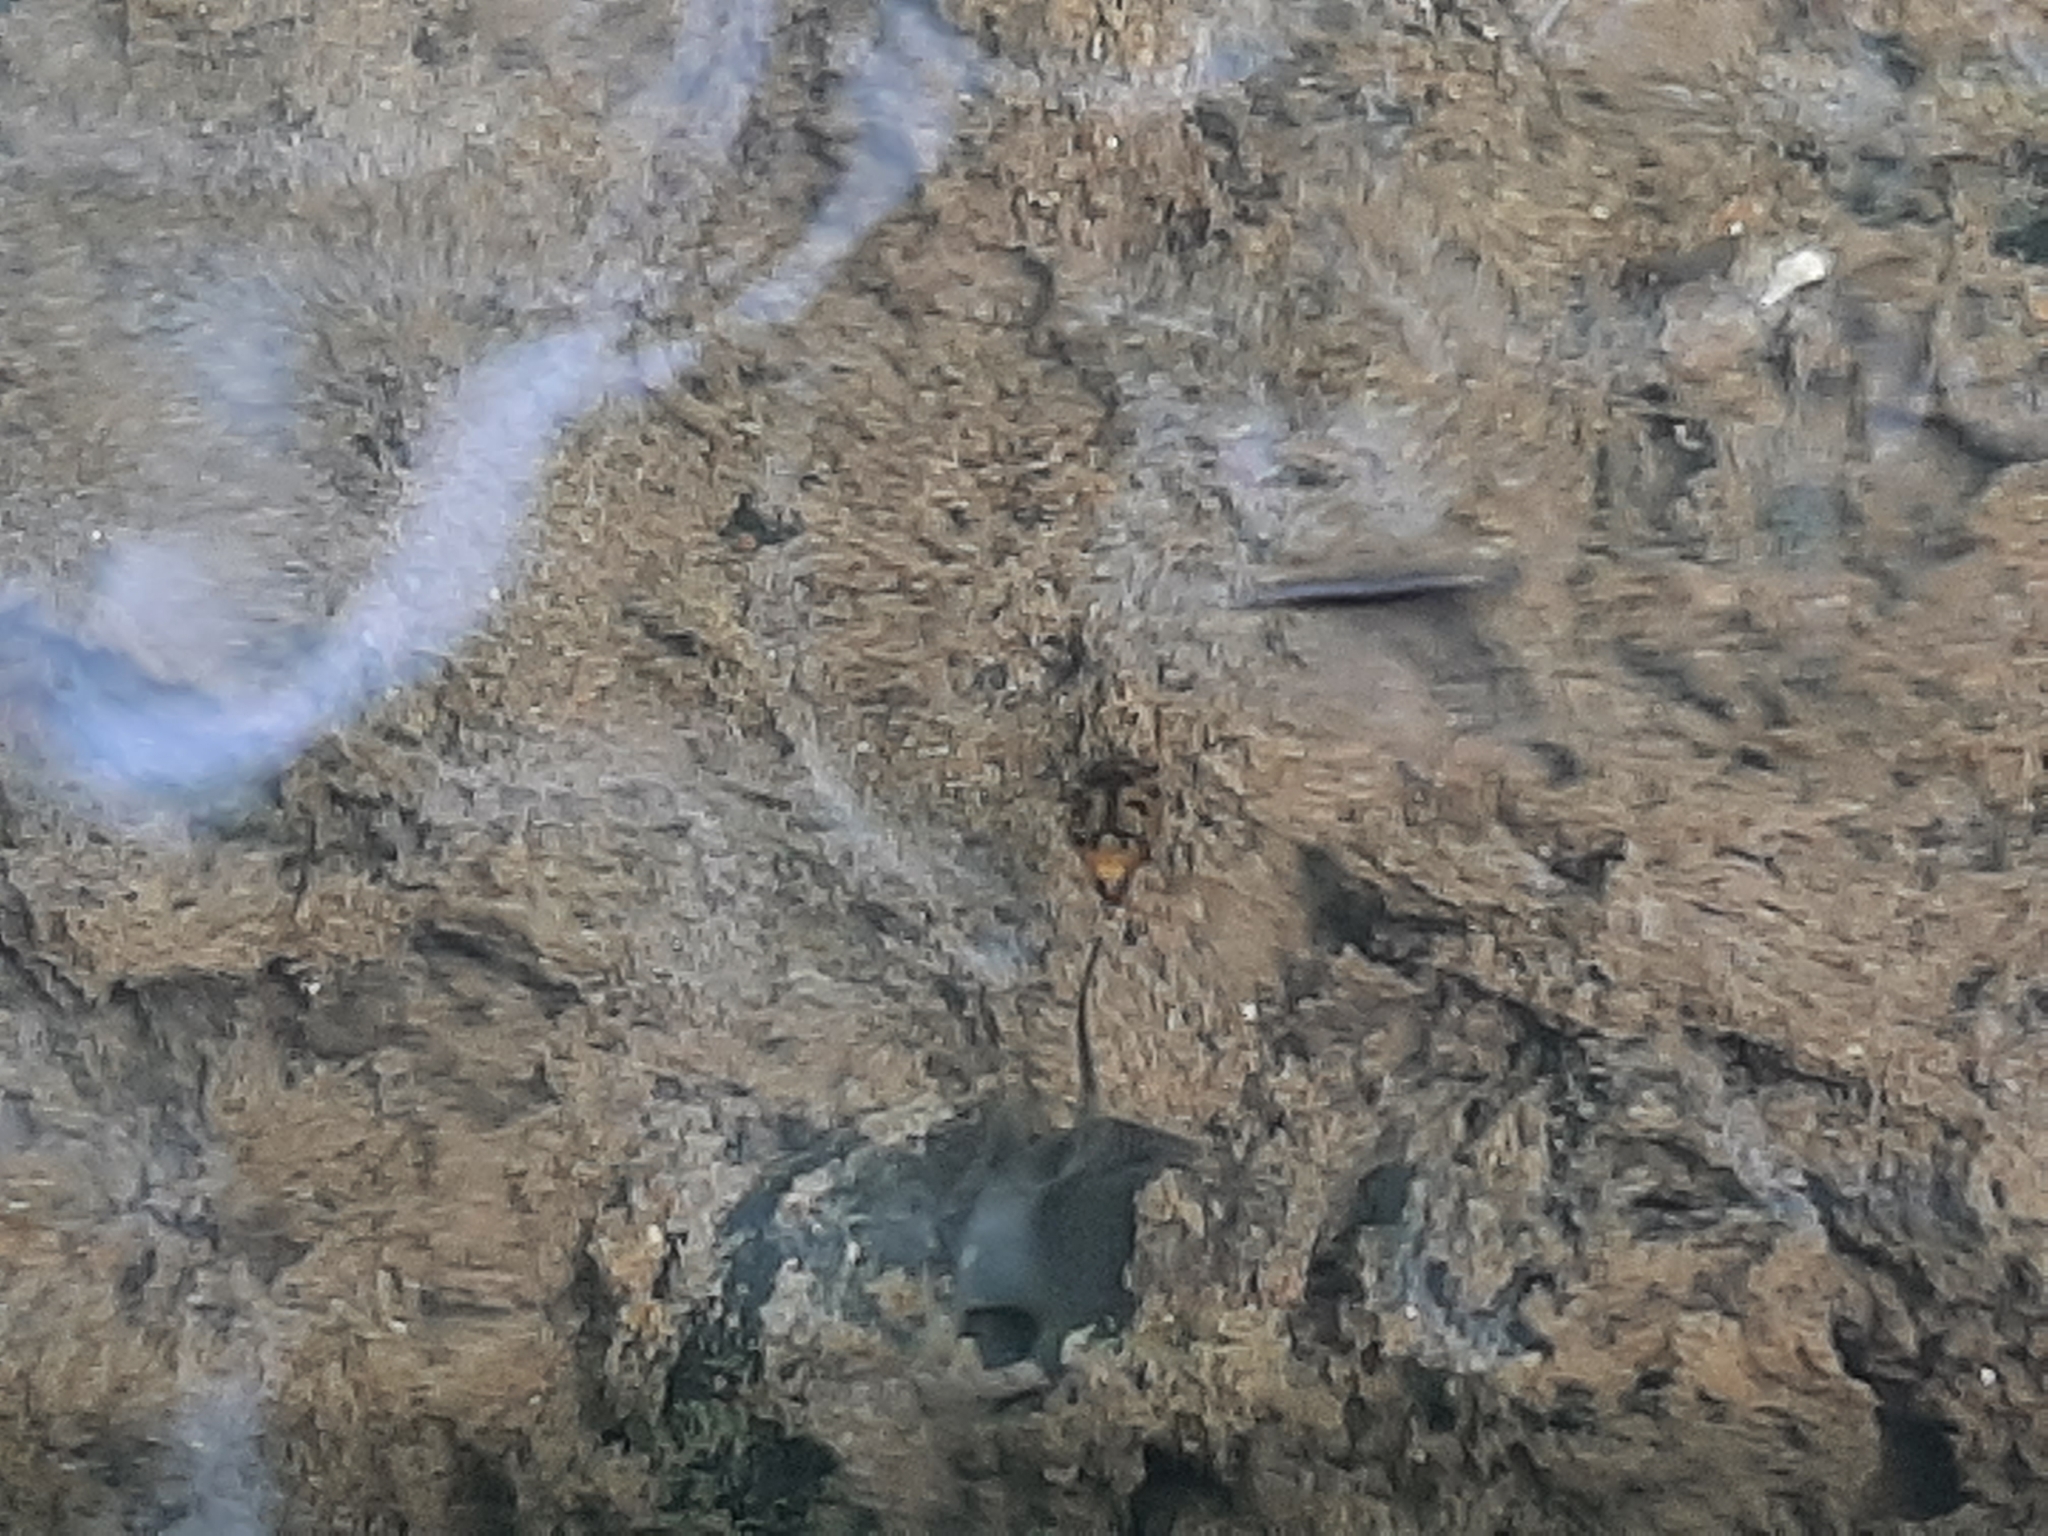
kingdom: Animalia
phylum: Arthropoda
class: Insecta
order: Coleoptera
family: Haliplidae
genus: Peltodytes
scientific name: Peltodytes
